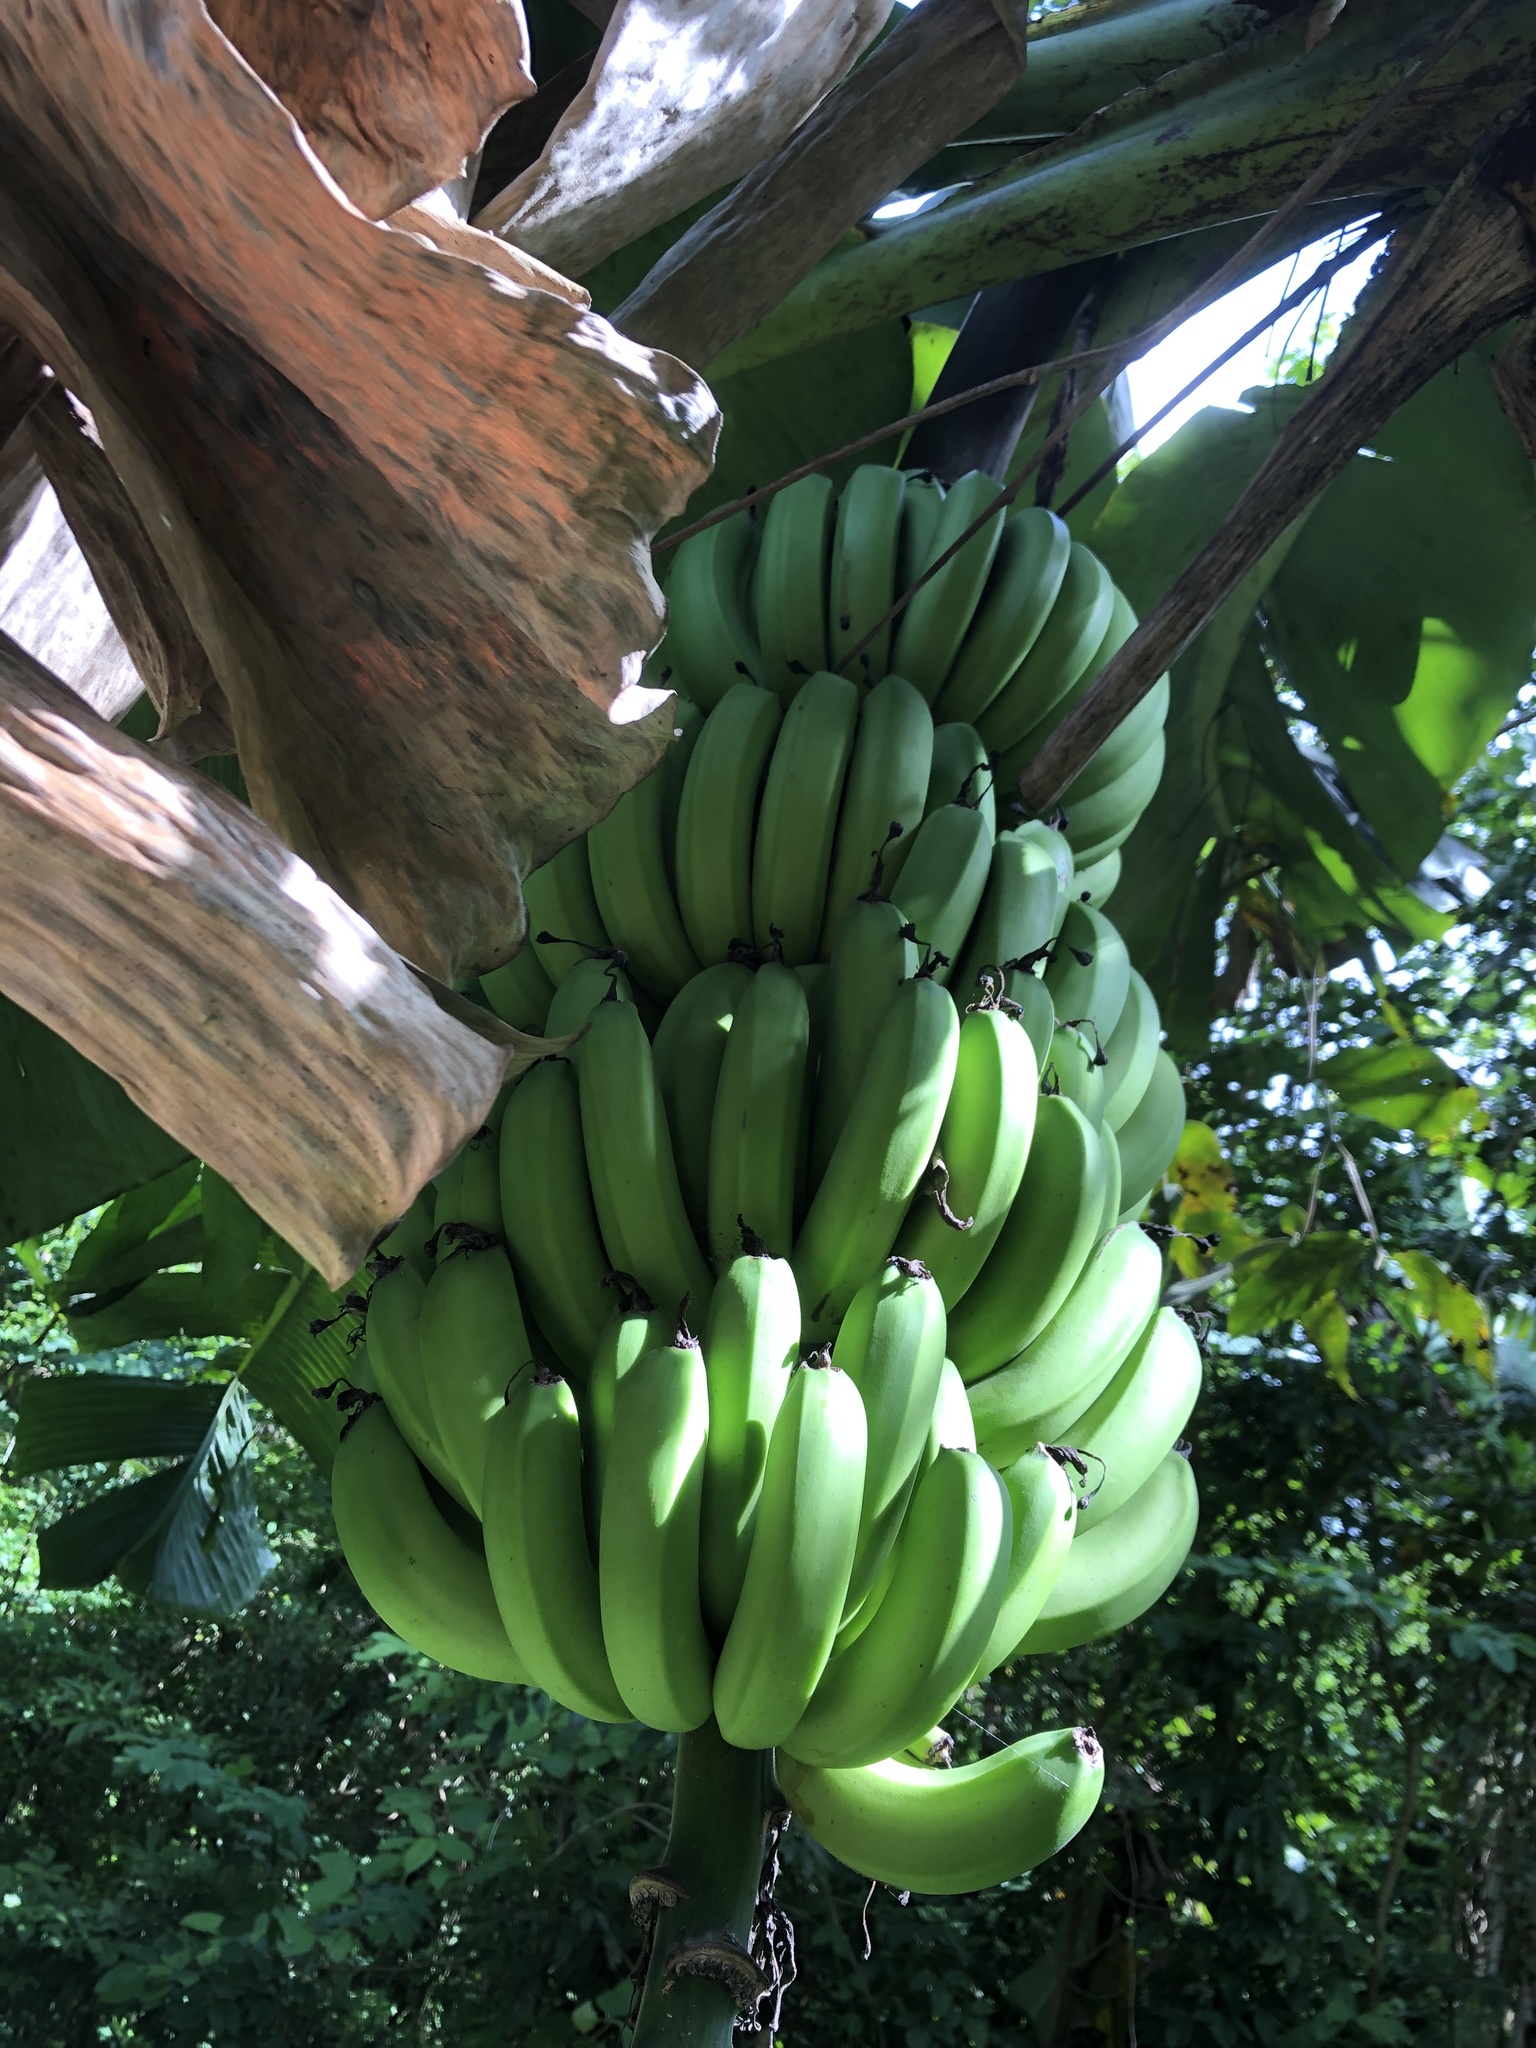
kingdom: Plantae
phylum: Tracheophyta
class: Liliopsida
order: Zingiberales
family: Musaceae
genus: Musa
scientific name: Musa acuminata
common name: Edible banana
